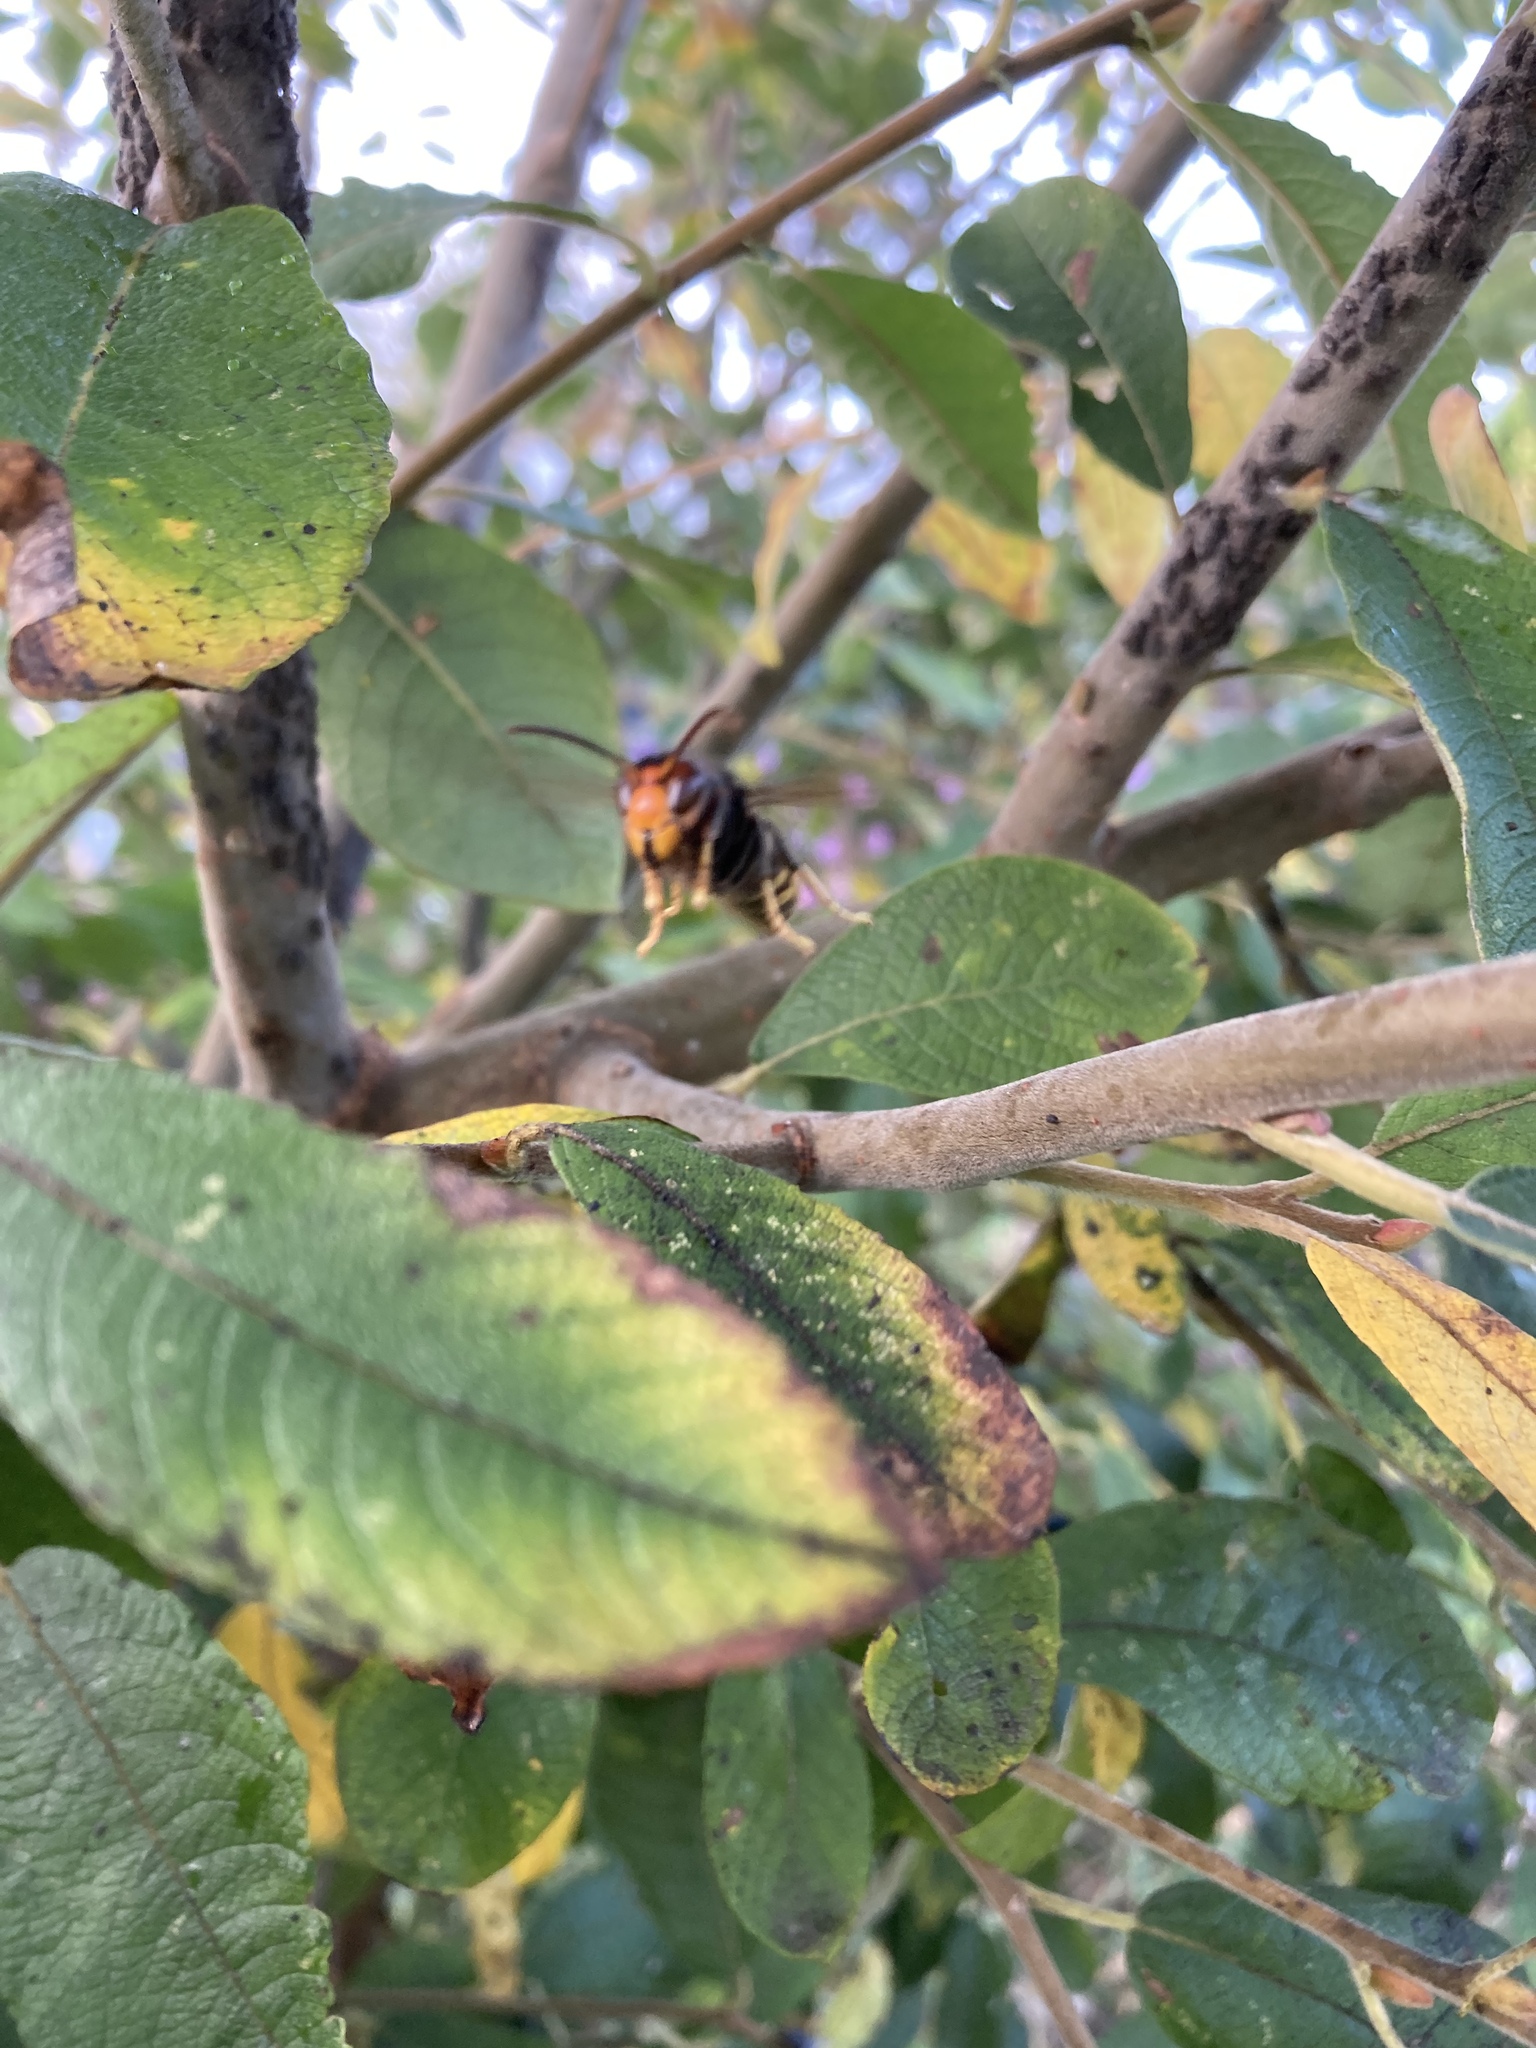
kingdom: Animalia
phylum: Arthropoda
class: Insecta
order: Hymenoptera
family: Vespidae
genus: Vespa
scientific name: Vespa velutina
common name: Asian hornet
